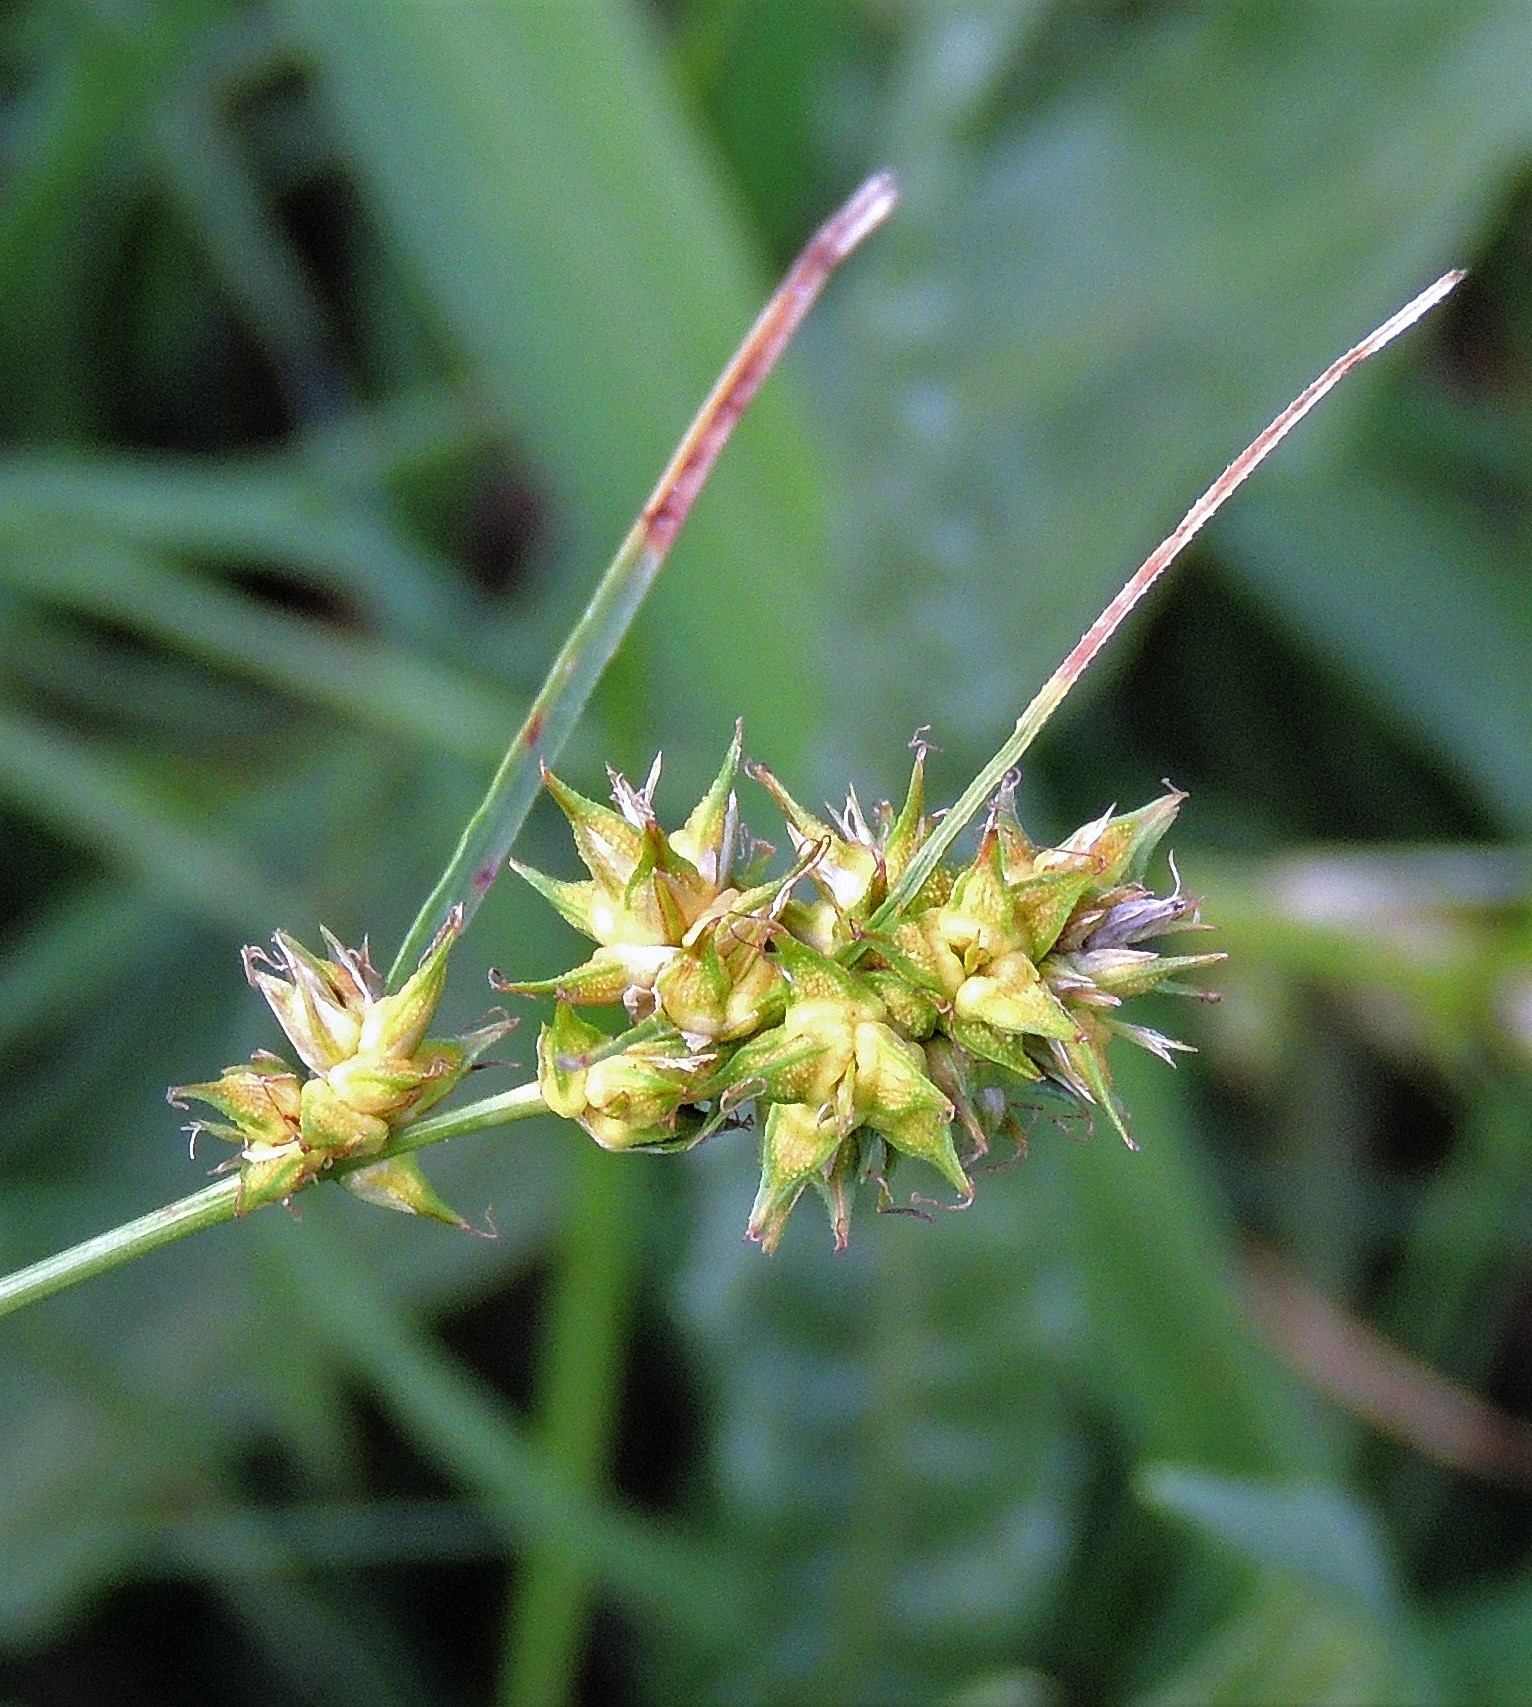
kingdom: Plantae
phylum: Tracheophyta
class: Liliopsida
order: Poales
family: Cyperaceae
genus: Carex
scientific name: Carex bonariensis
